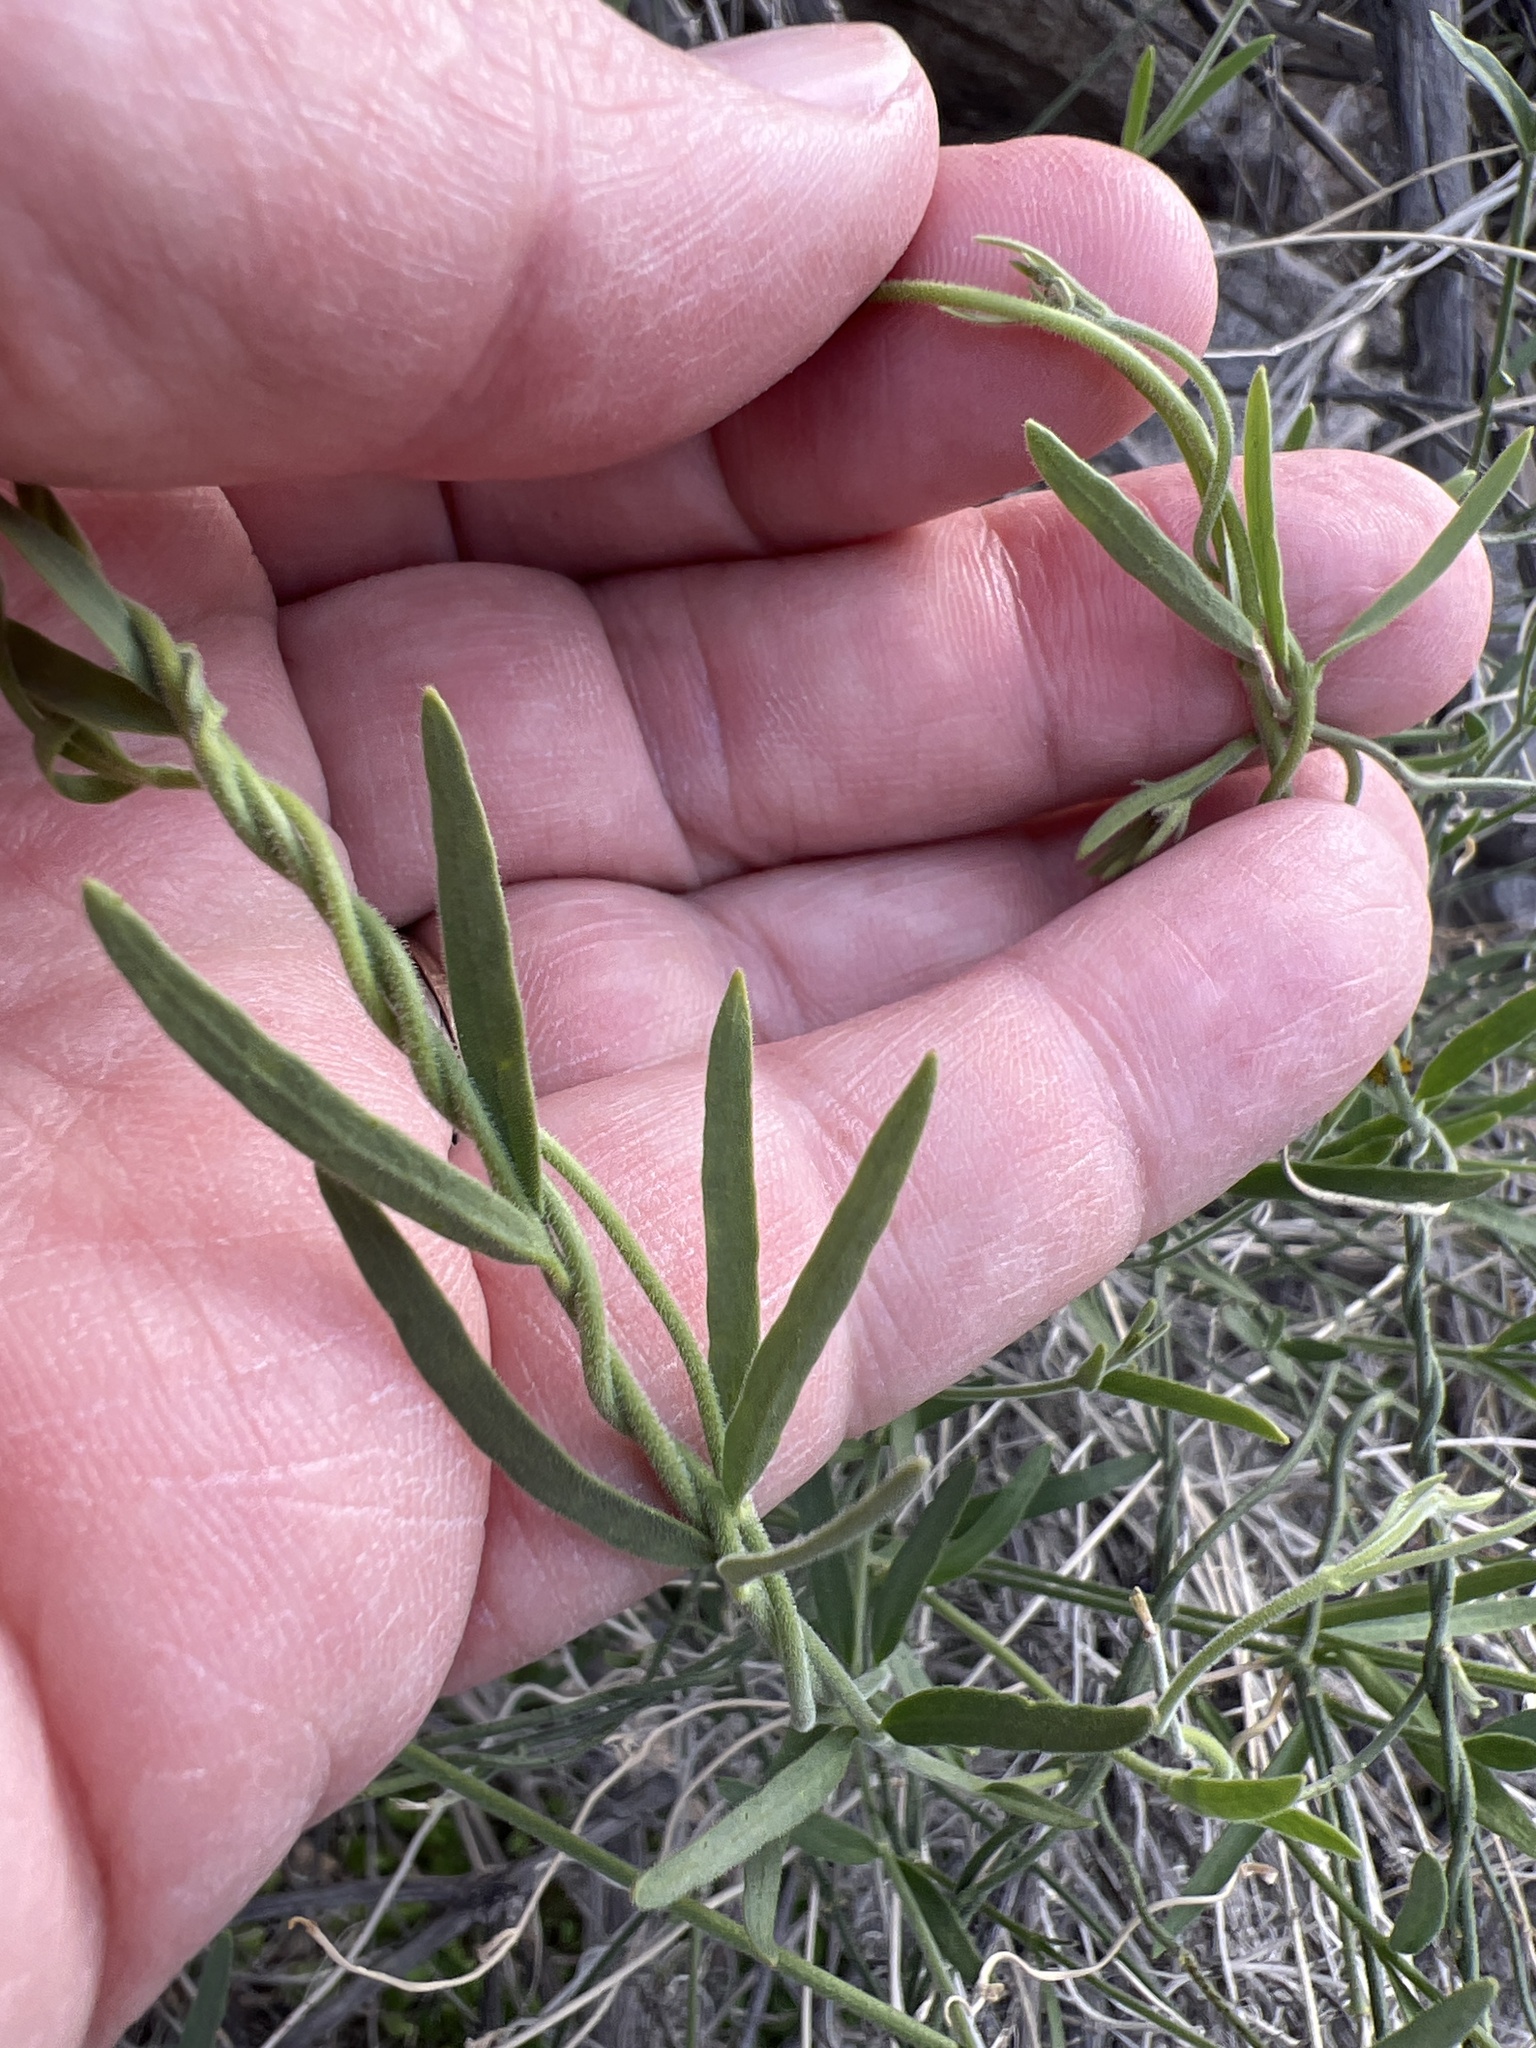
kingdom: Plantae
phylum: Tracheophyta
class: Magnoliopsida
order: Gentianales
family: Apocynaceae
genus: Funastrum
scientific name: Funastrum hirtellum
